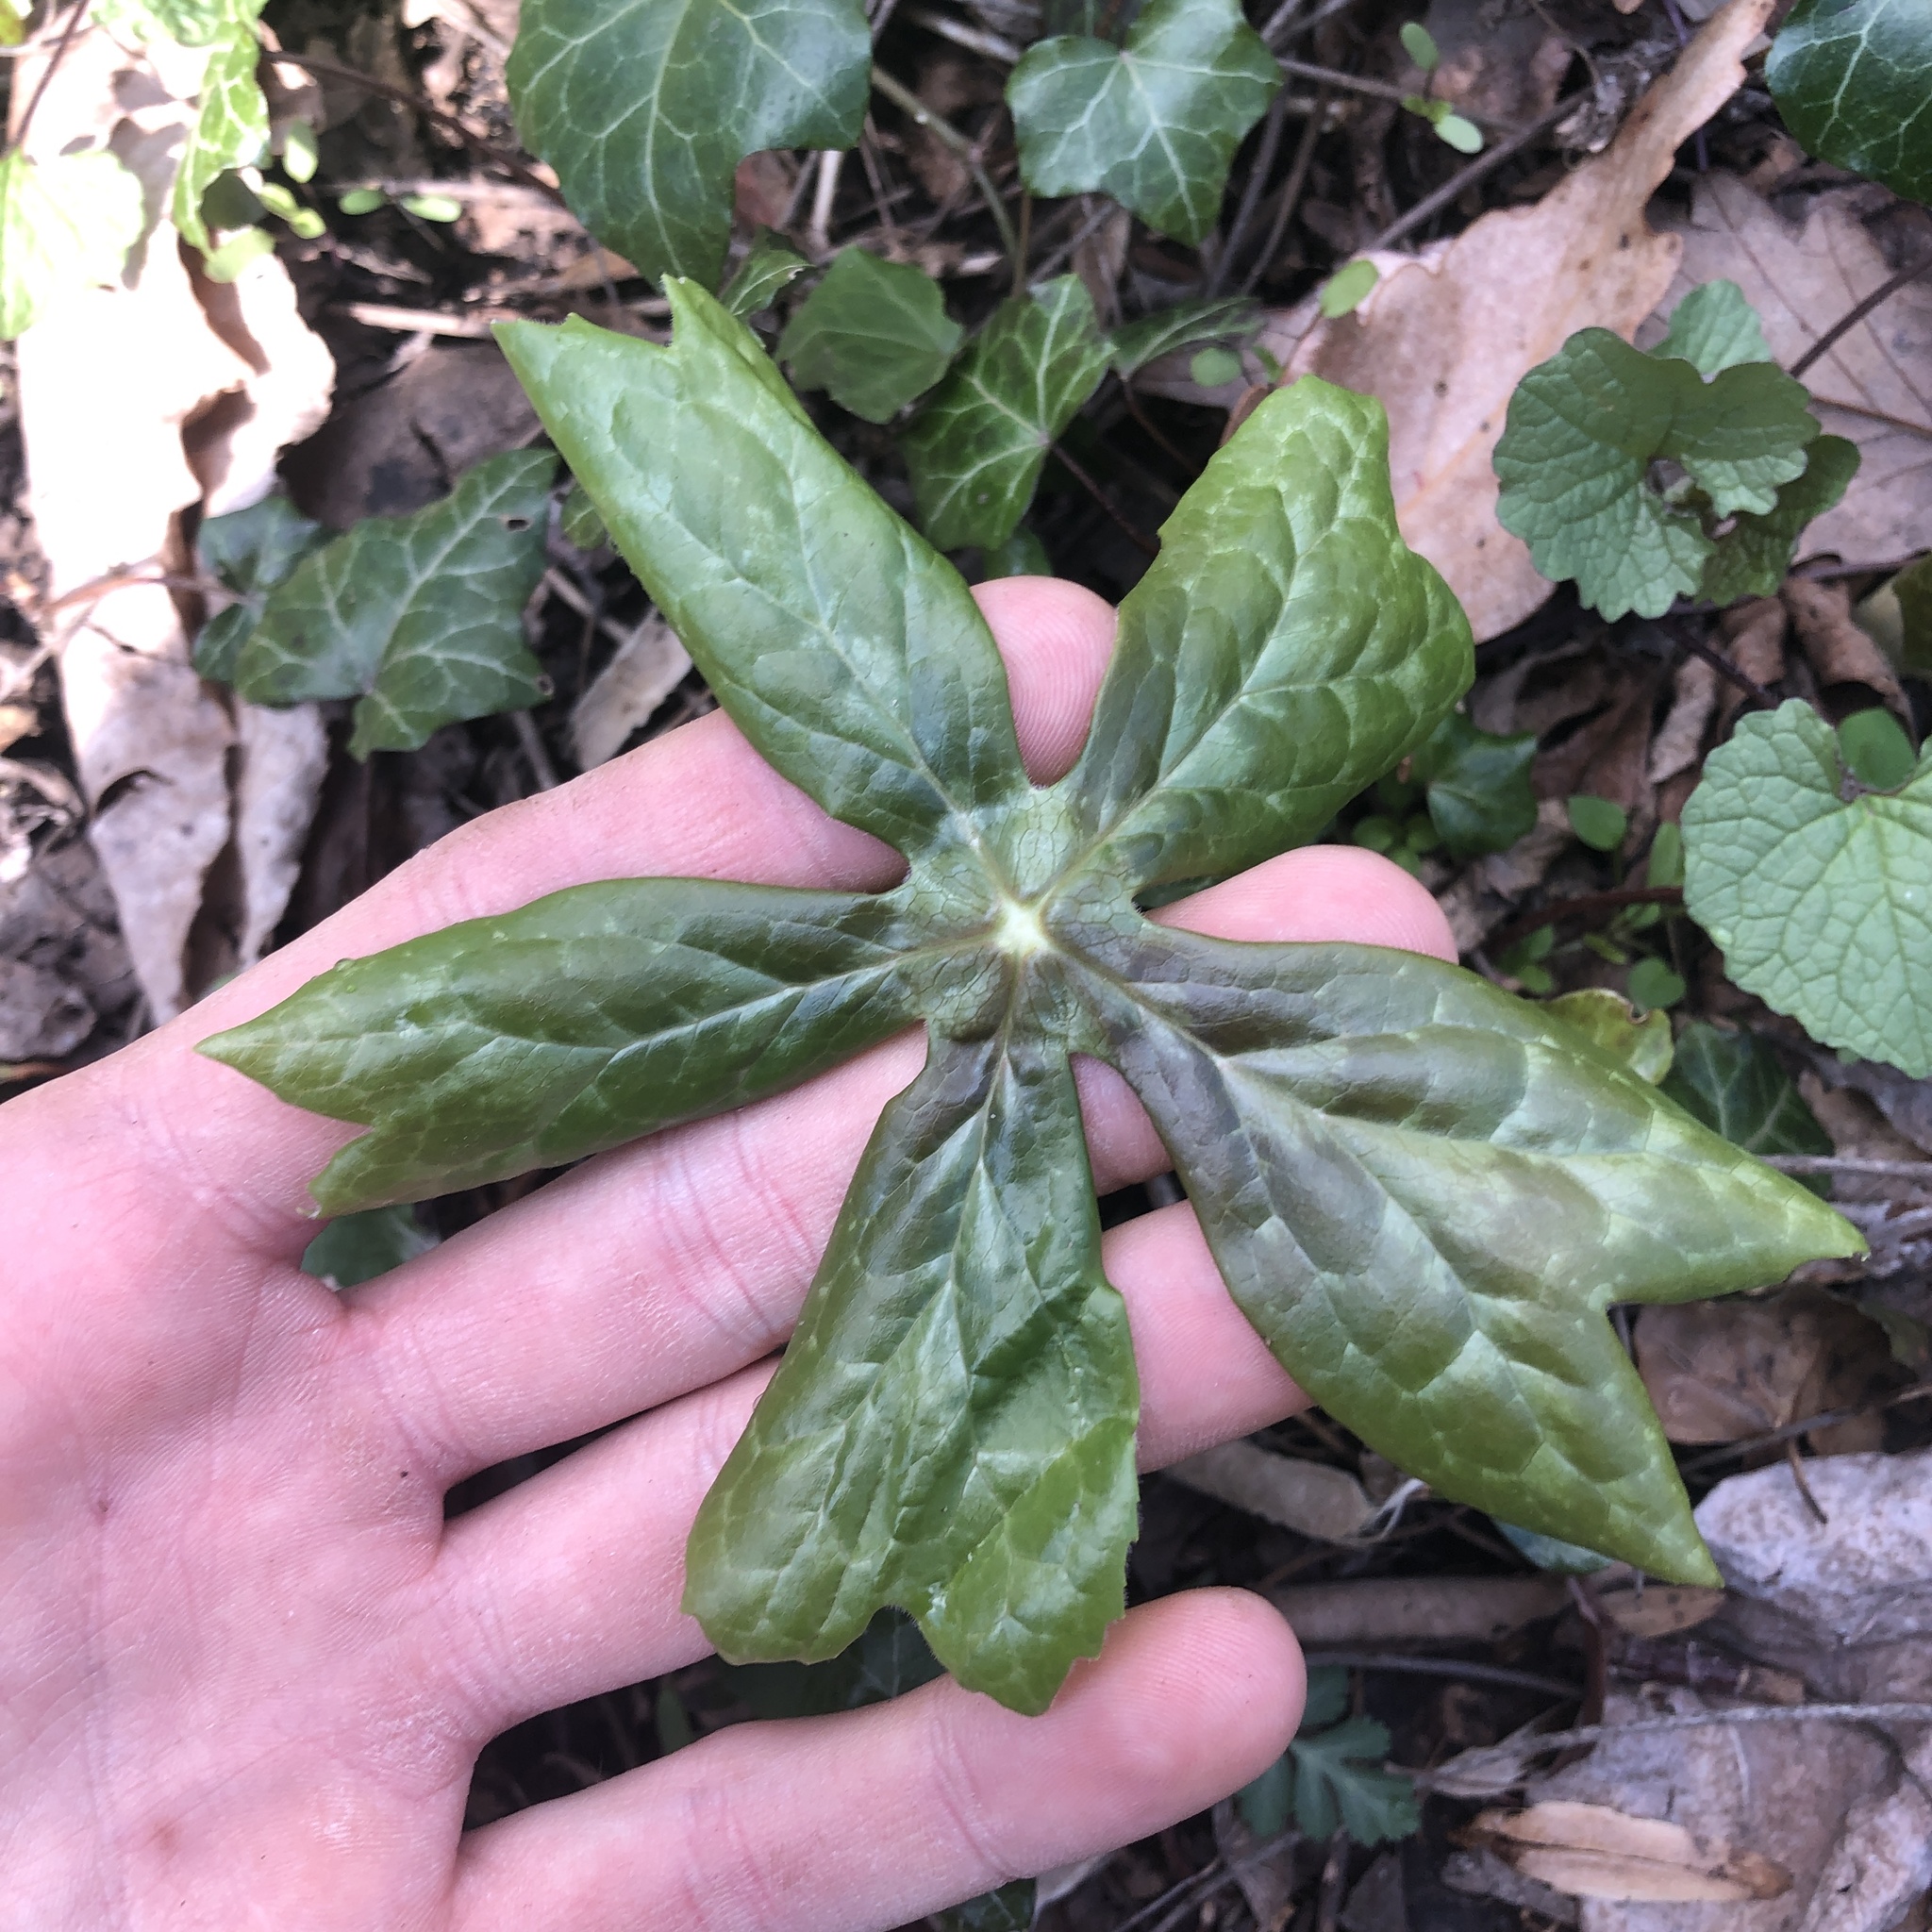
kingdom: Plantae
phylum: Tracheophyta
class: Magnoliopsida
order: Ranunculales
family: Berberidaceae
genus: Podophyllum
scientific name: Podophyllum peltatum
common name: Wild mandrake
